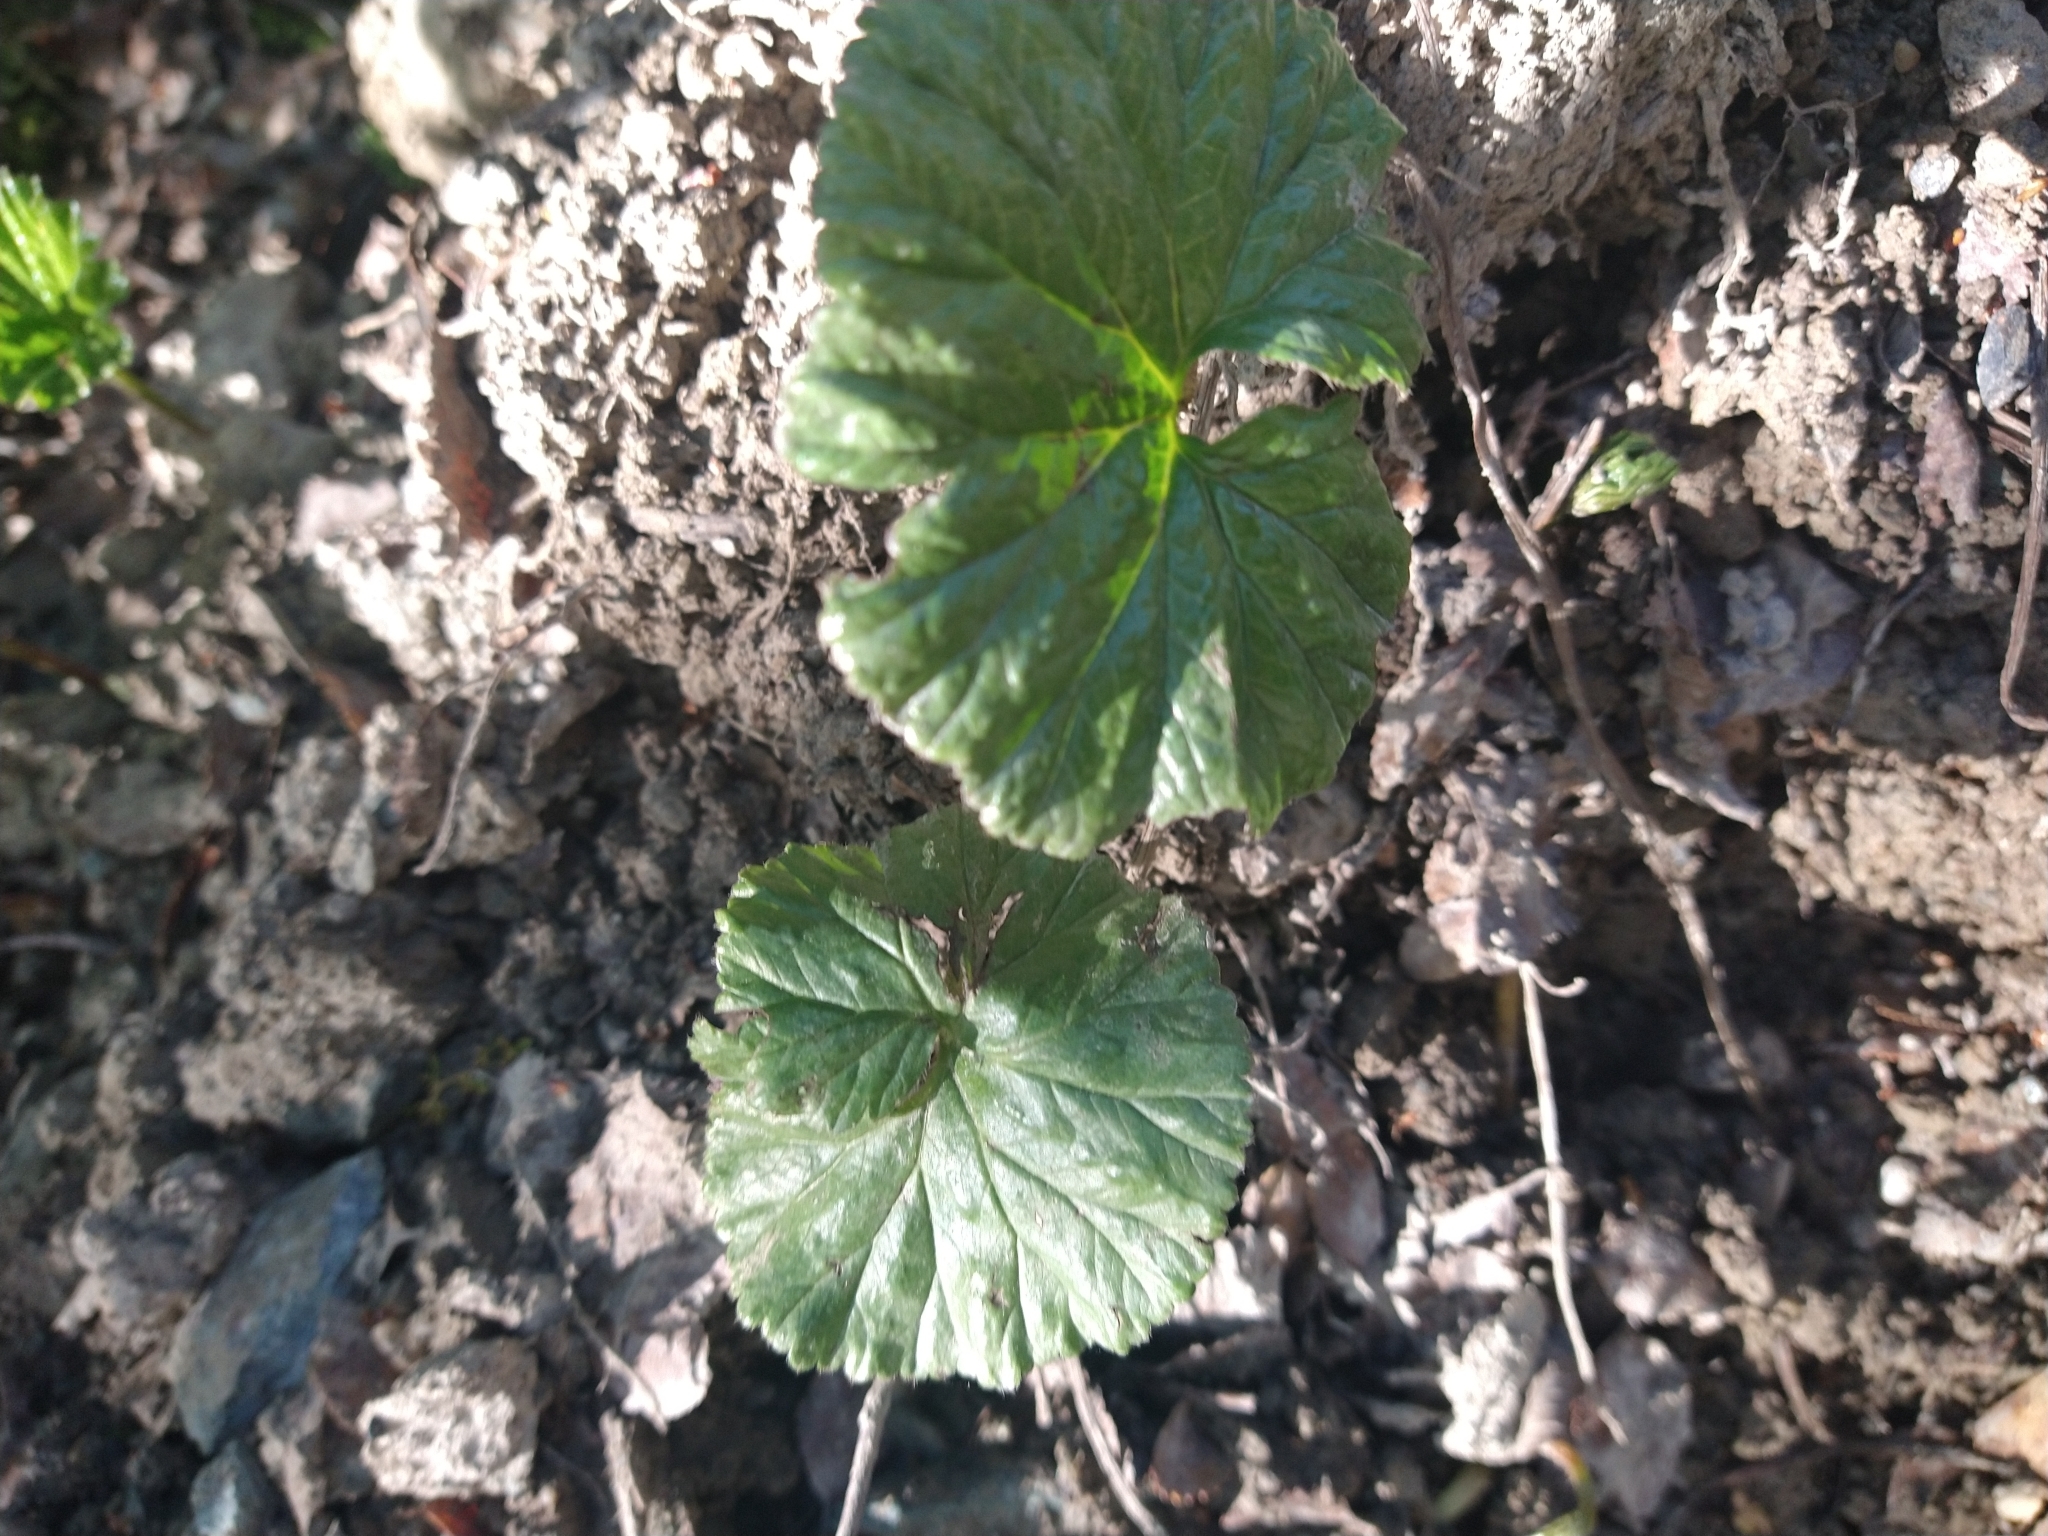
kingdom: Plantae
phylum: Tracheophyta
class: Magnoliopsida
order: Gunnerales
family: Gunneraceae
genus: Gunnera
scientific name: Gunnera magellanica
